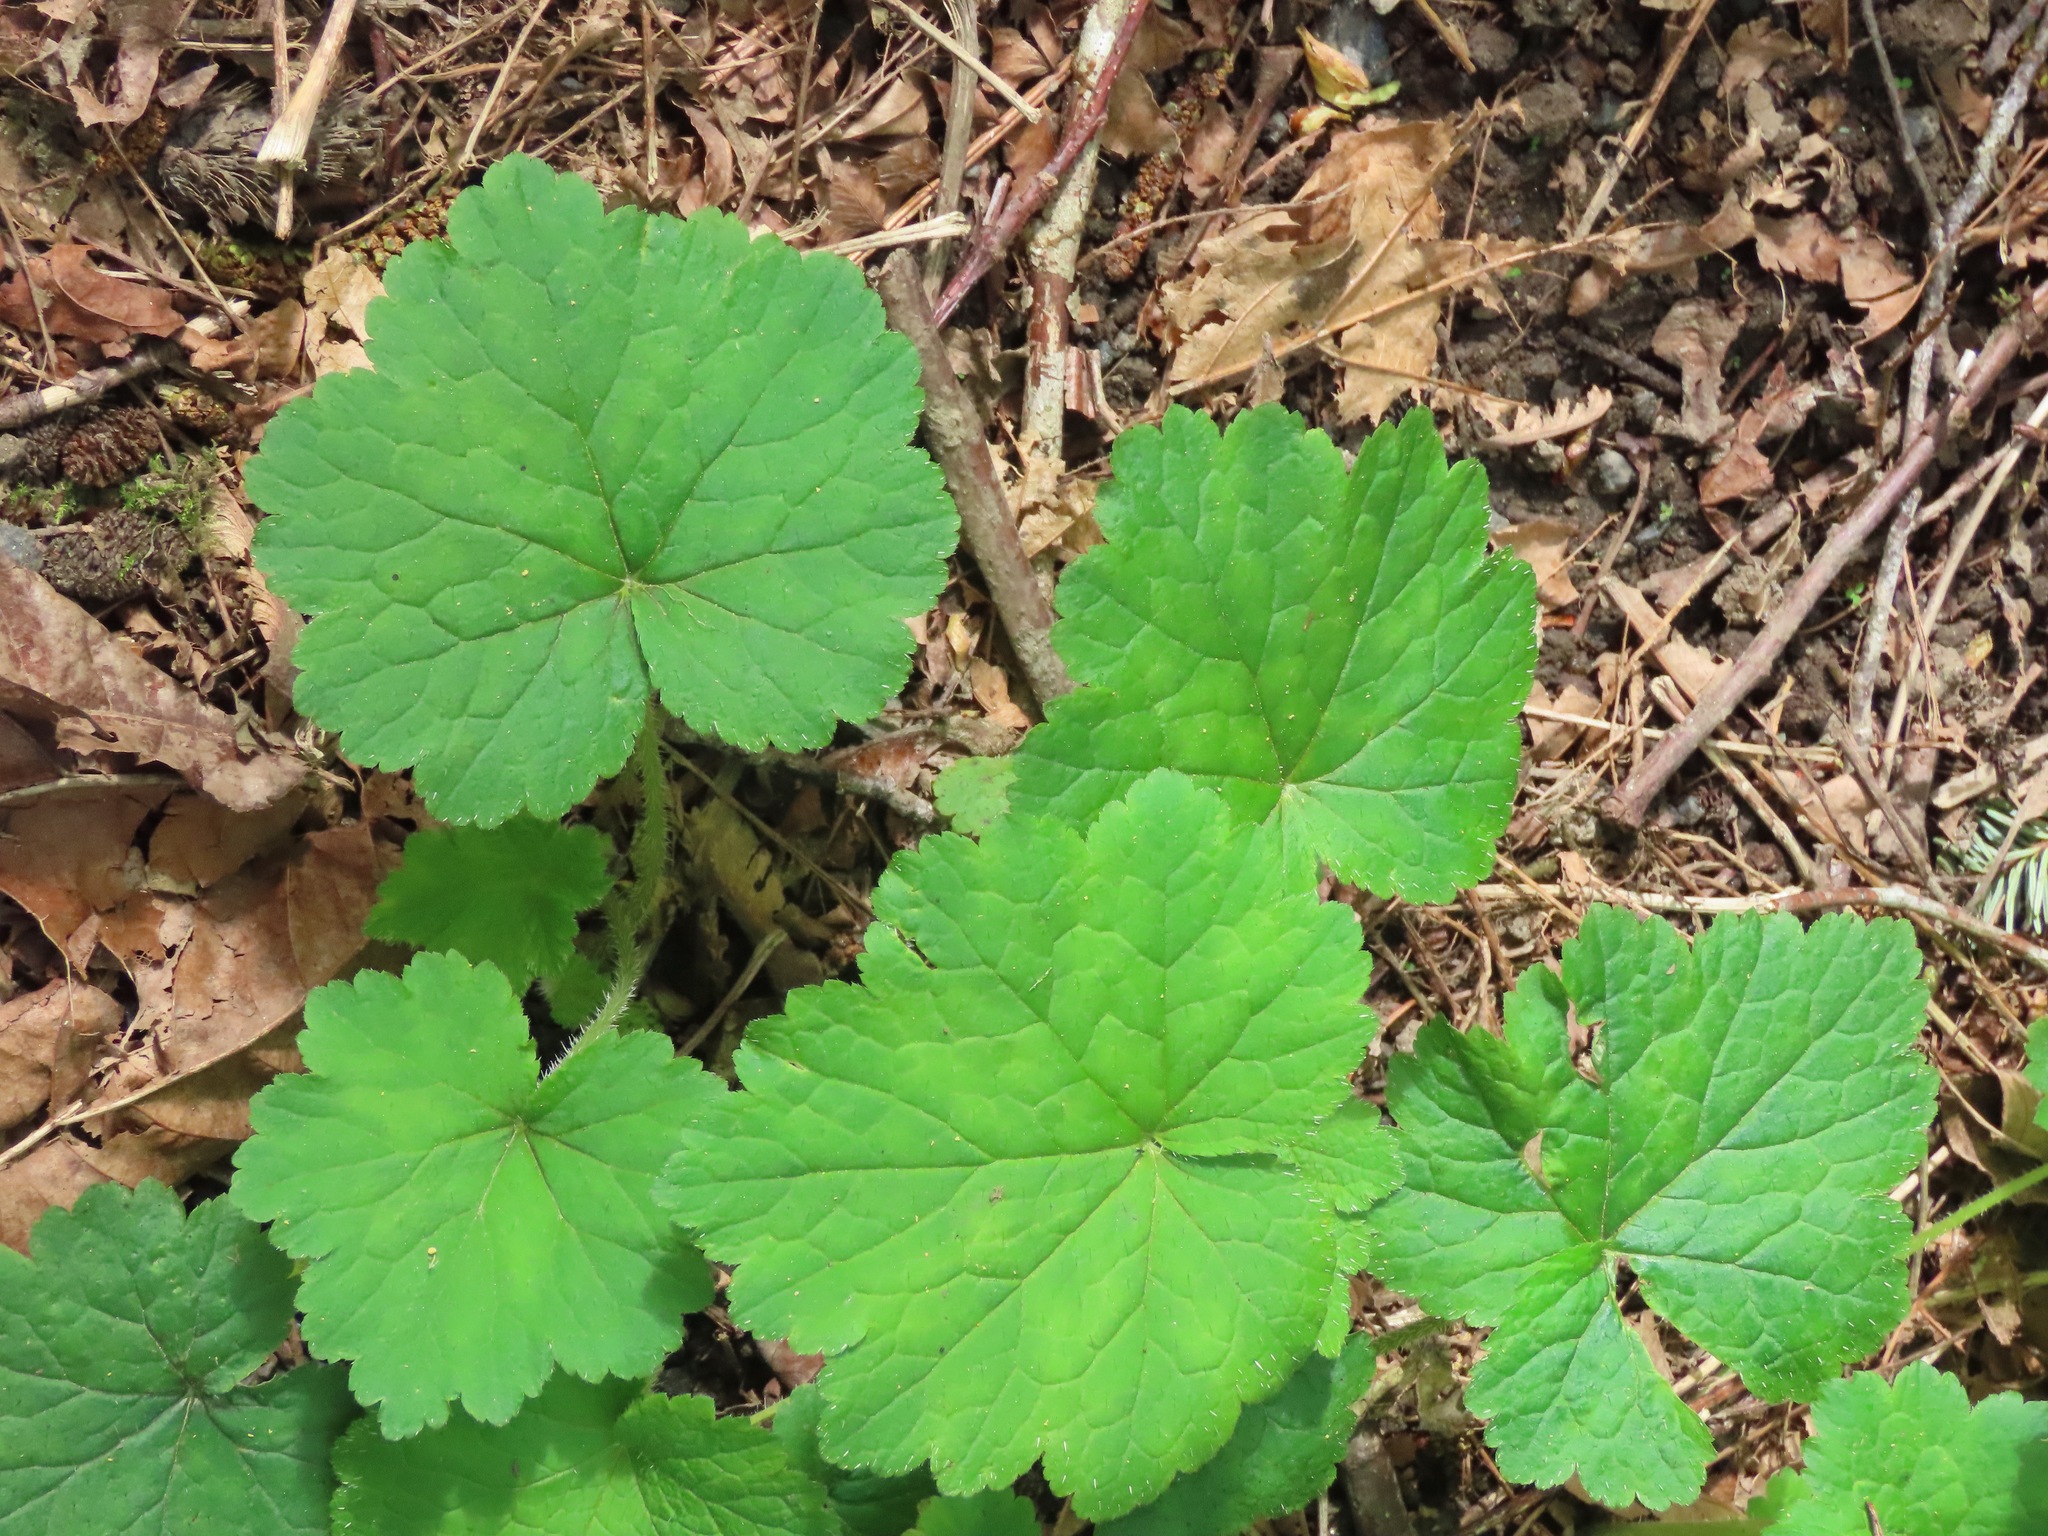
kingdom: Plantae
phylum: Tracheophyta
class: Magnoliopsida
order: Saxifragales
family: Saxifragaceae
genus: Tellima
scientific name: Tellima grandiflora
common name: Fringecups
